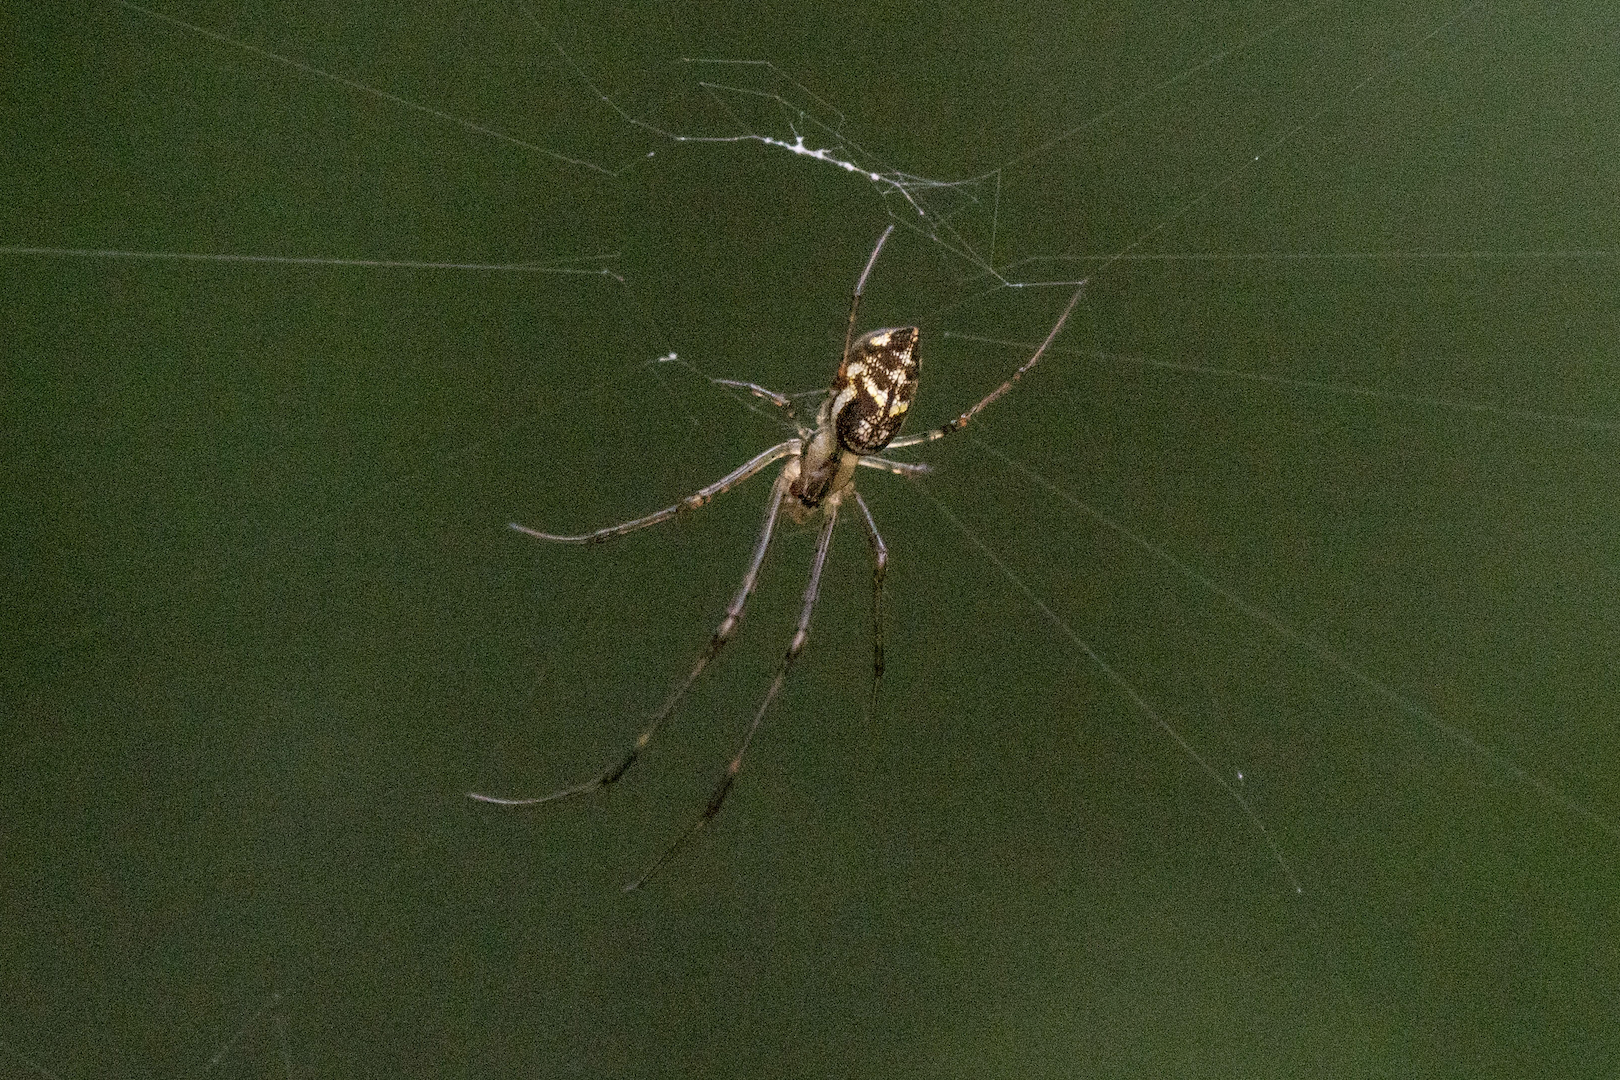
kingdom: Animalia
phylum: Arthropoda
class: Arachnida
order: Araneae
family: Tetragnathidae
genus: Tylorida
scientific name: Tylorida ventralis
